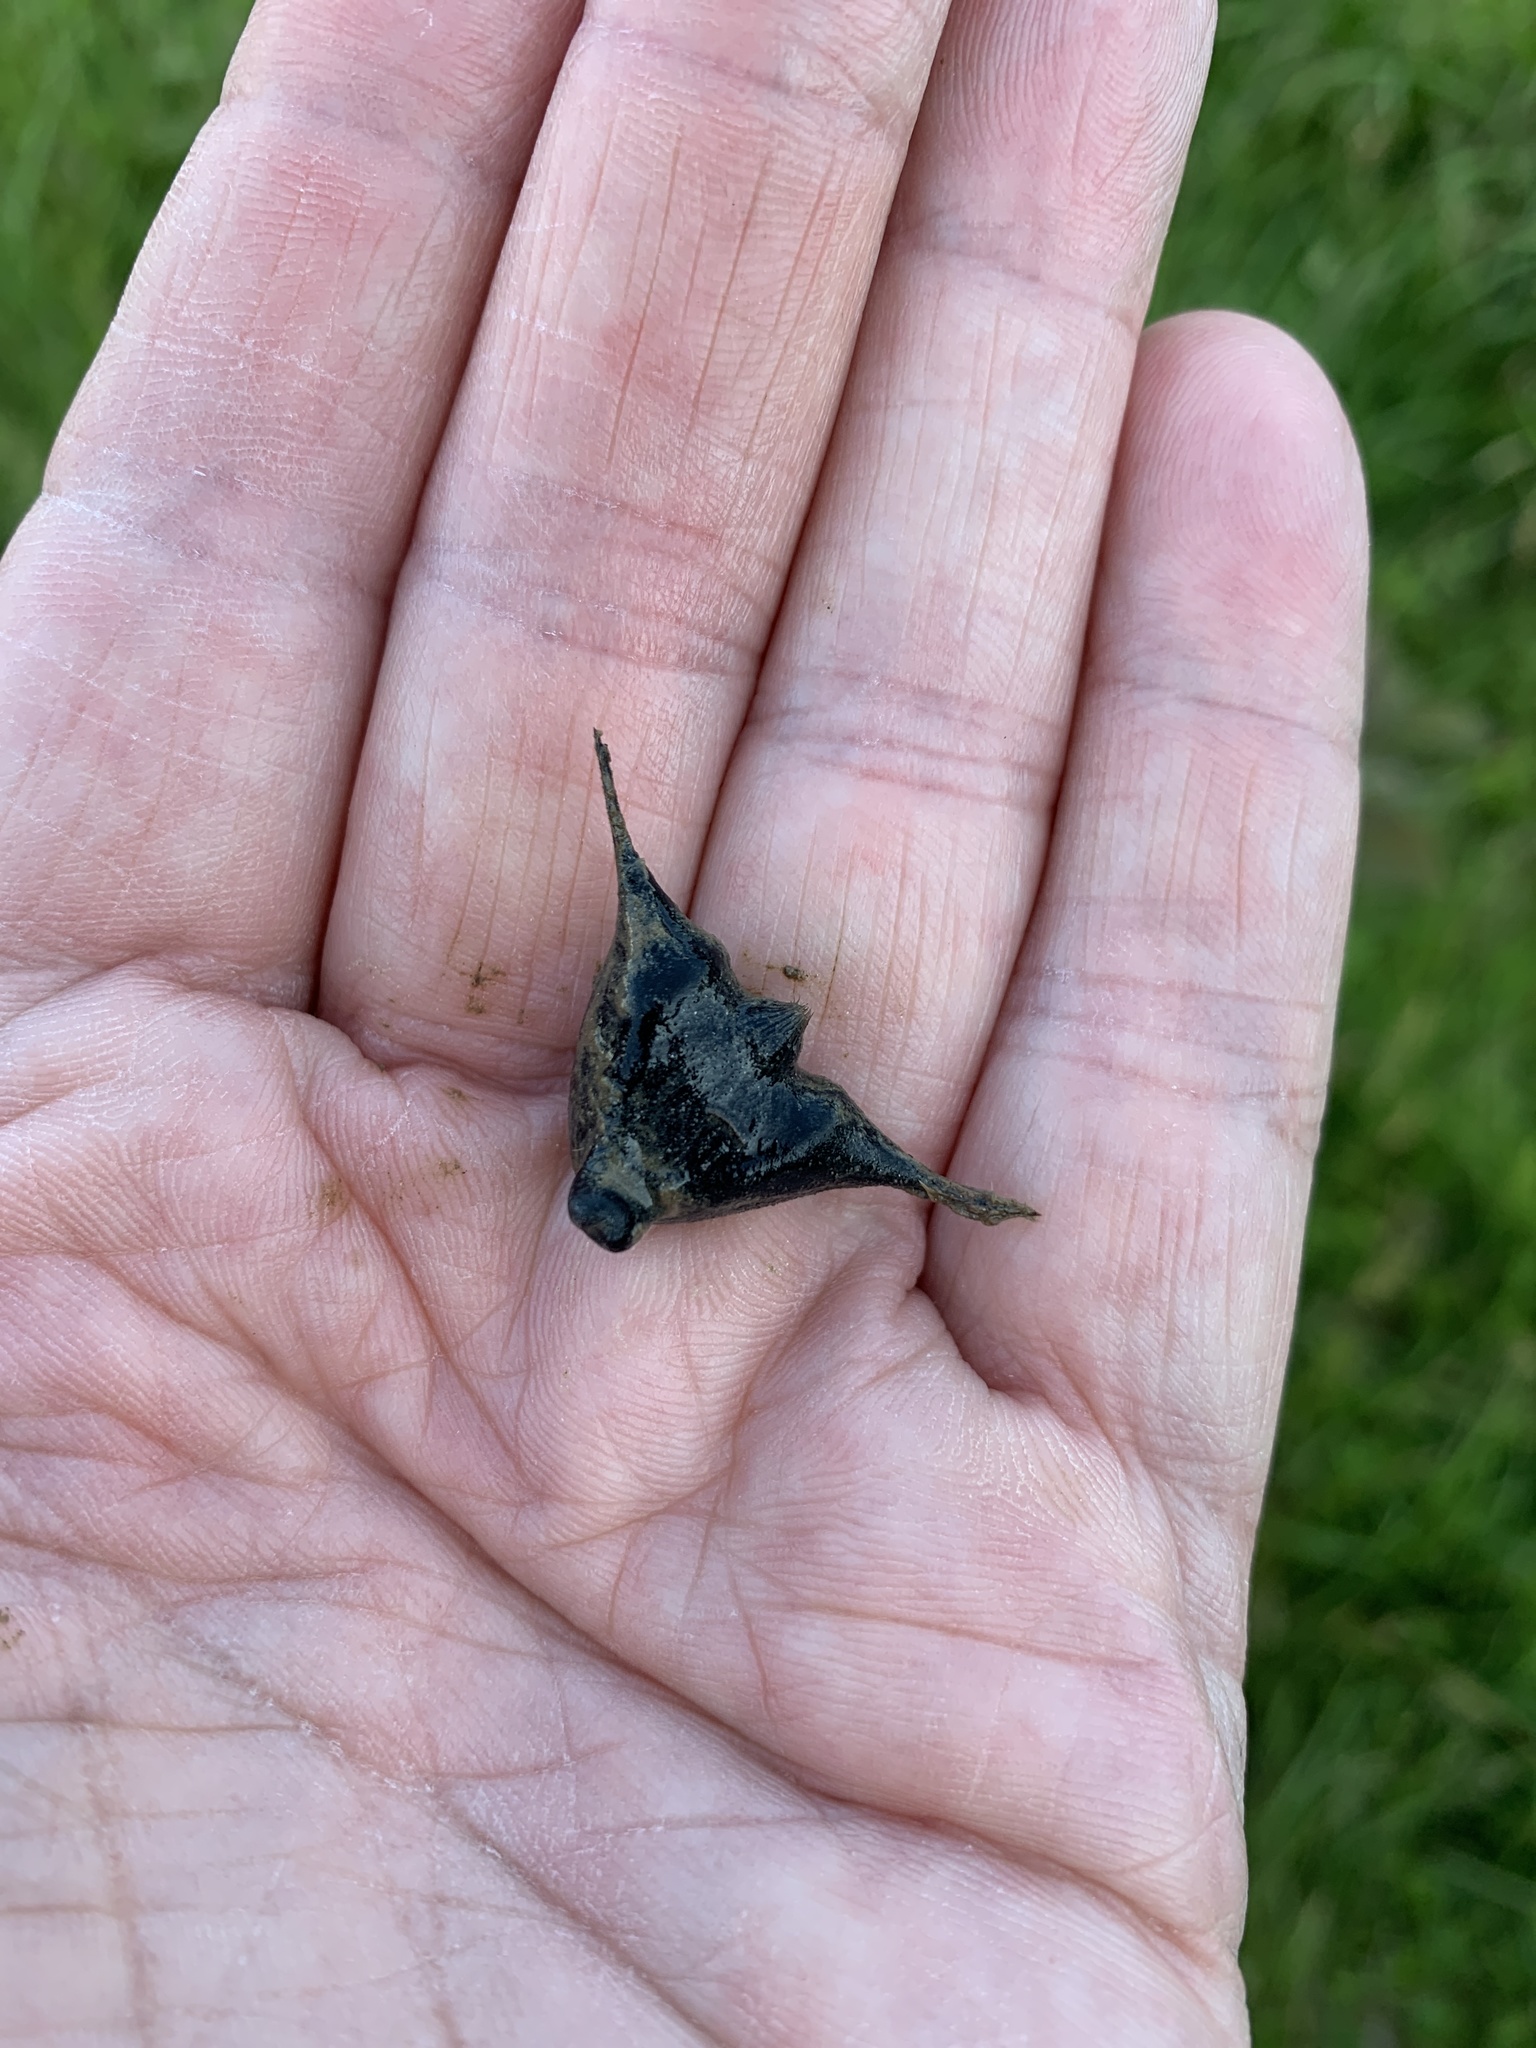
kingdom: Plantae
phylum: Tracheophyta
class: Magnoliopsida
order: Myrtales
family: Lythraceae
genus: Trapa
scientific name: Trapa natans
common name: Water chestnut
